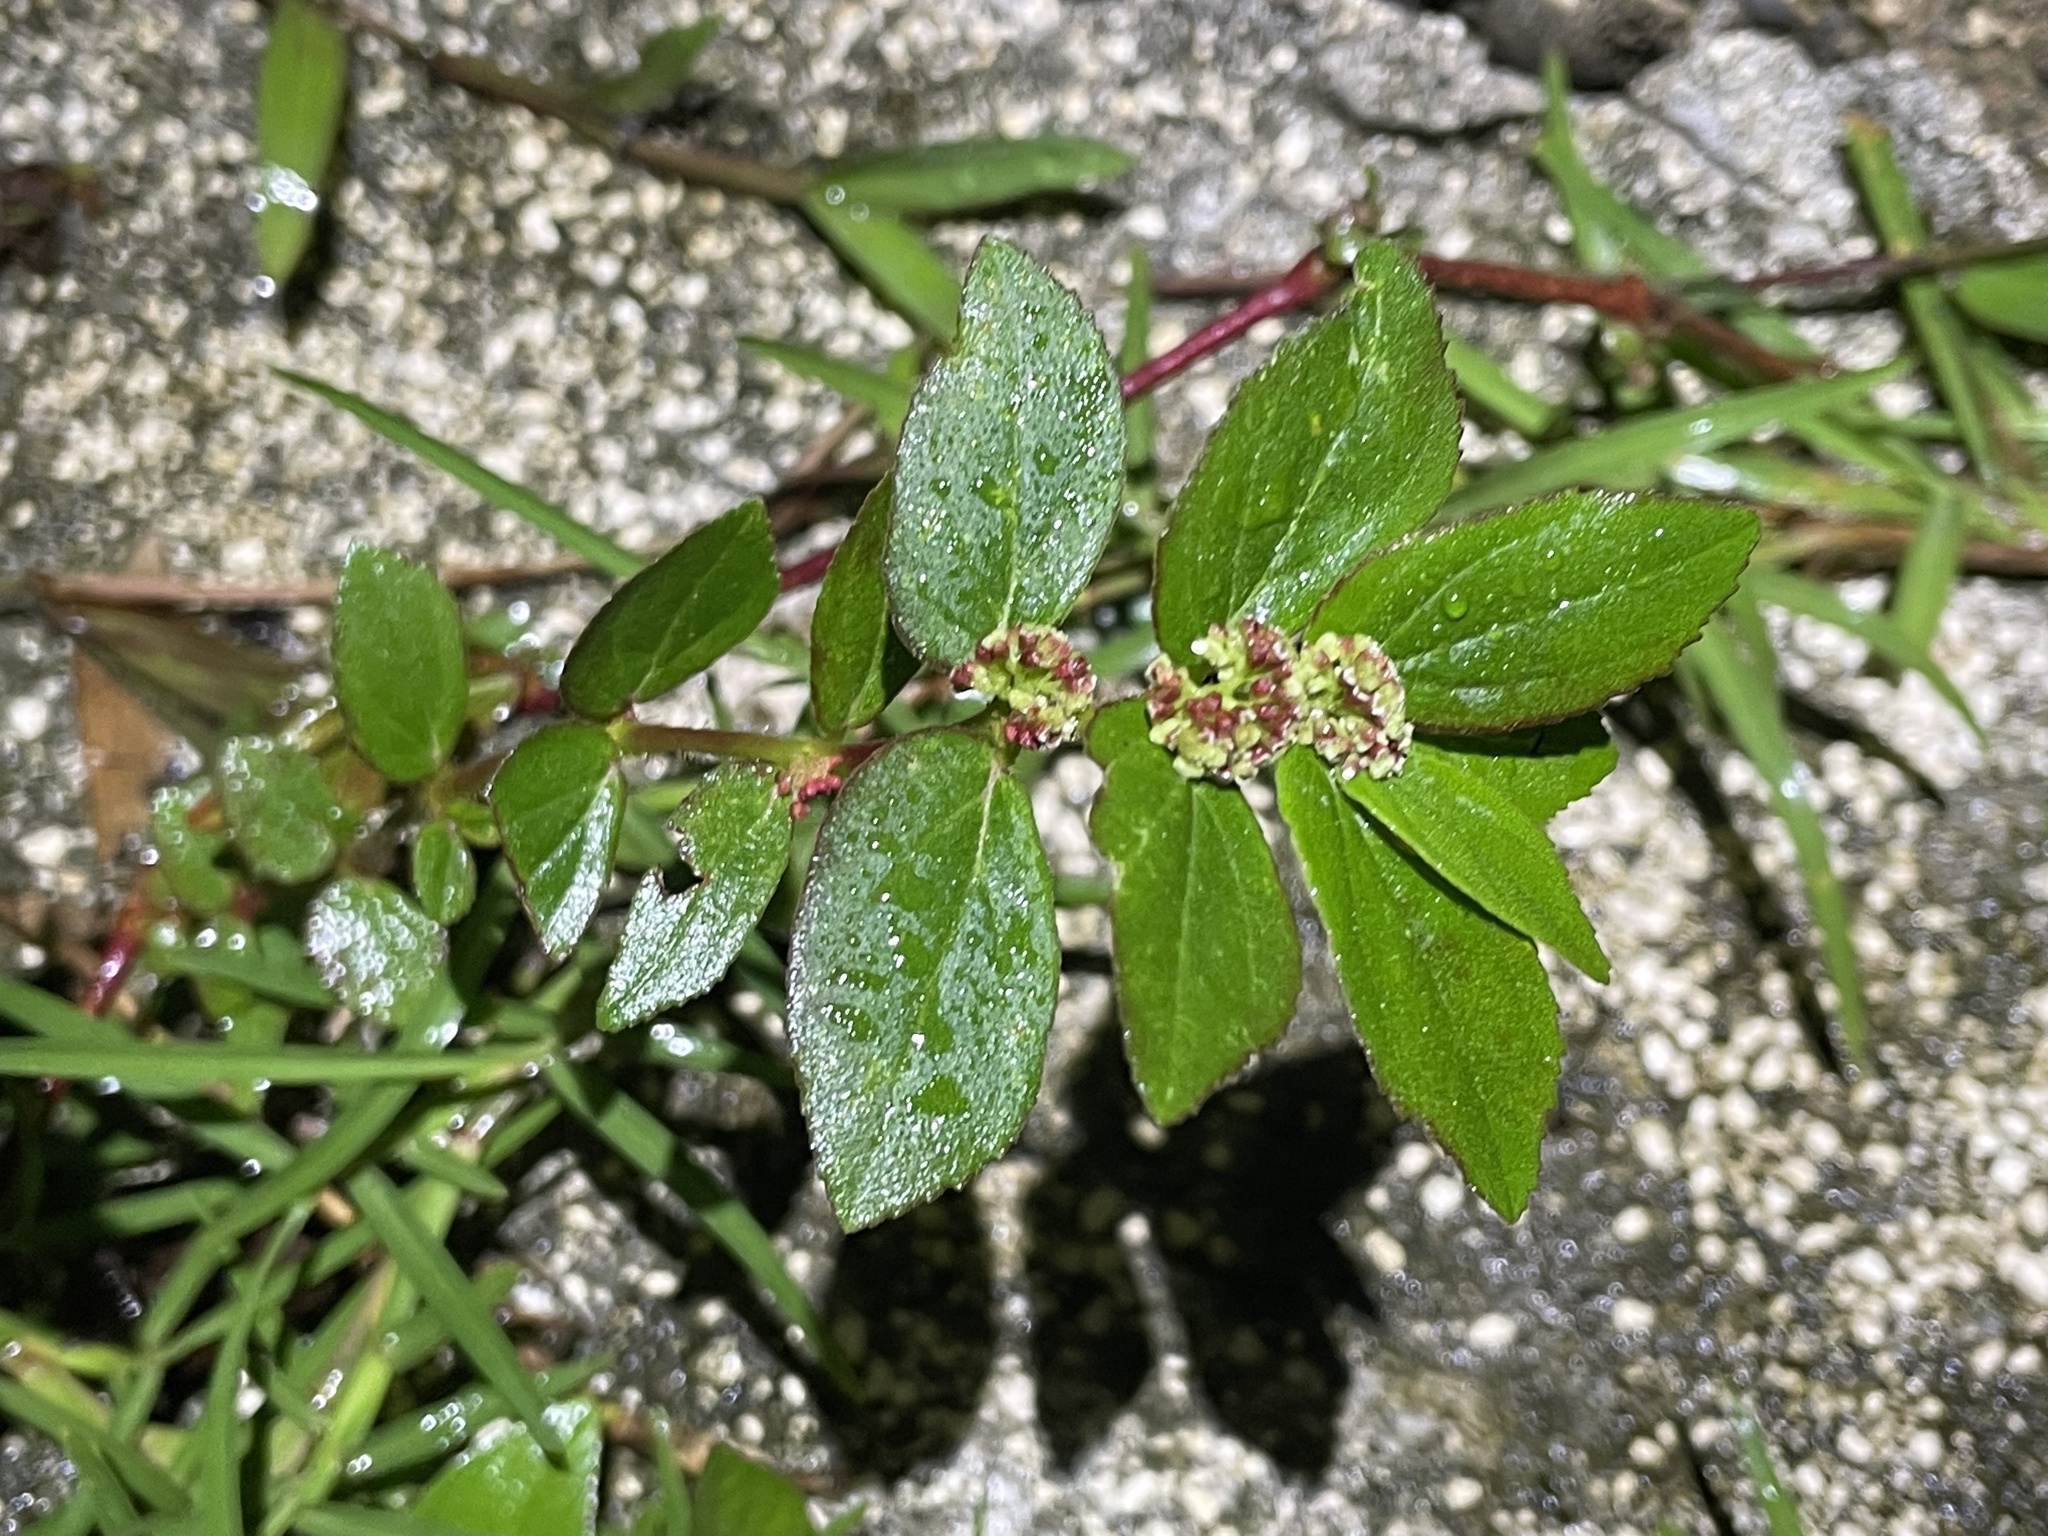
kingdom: Plantae
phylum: Tracheophyta
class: Magnoliopsida
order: Malpighiales
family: Euphorbiaceae
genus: Euphorbia
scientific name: Euphorbia hirta
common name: Pillpod sandmat
